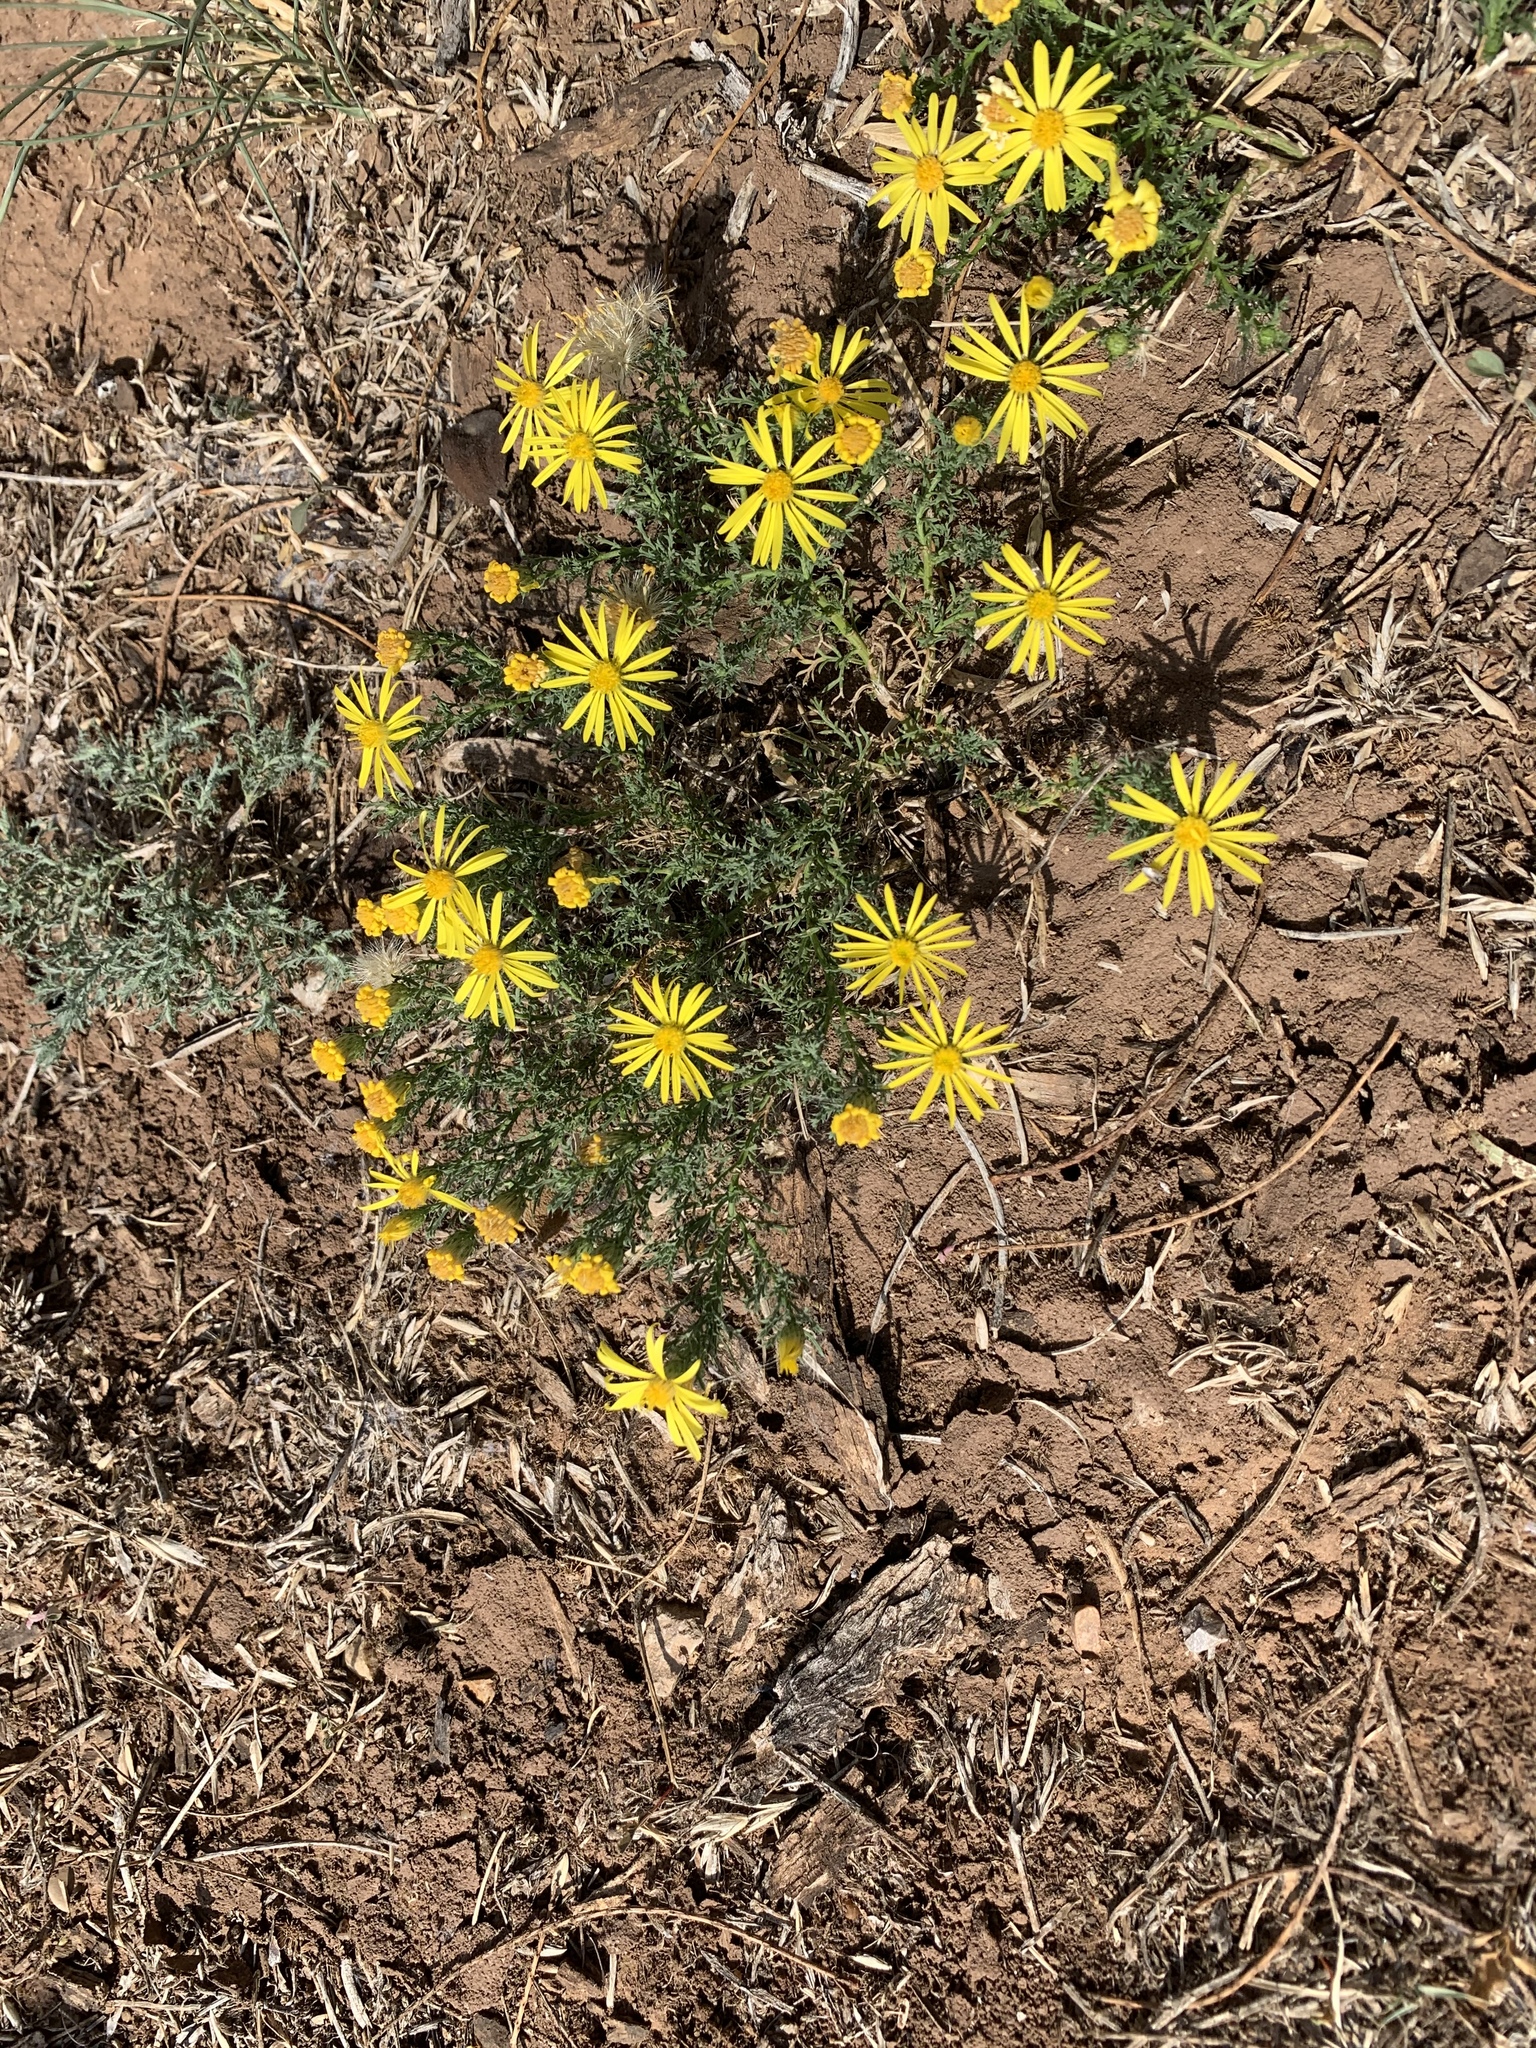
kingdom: Plantae
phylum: Tracheophyta
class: Magnoliopsida
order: Asterales
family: Asteraceae
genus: Xanthisma
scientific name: Xanthisma spinulosum
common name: Spiny goldenweed
